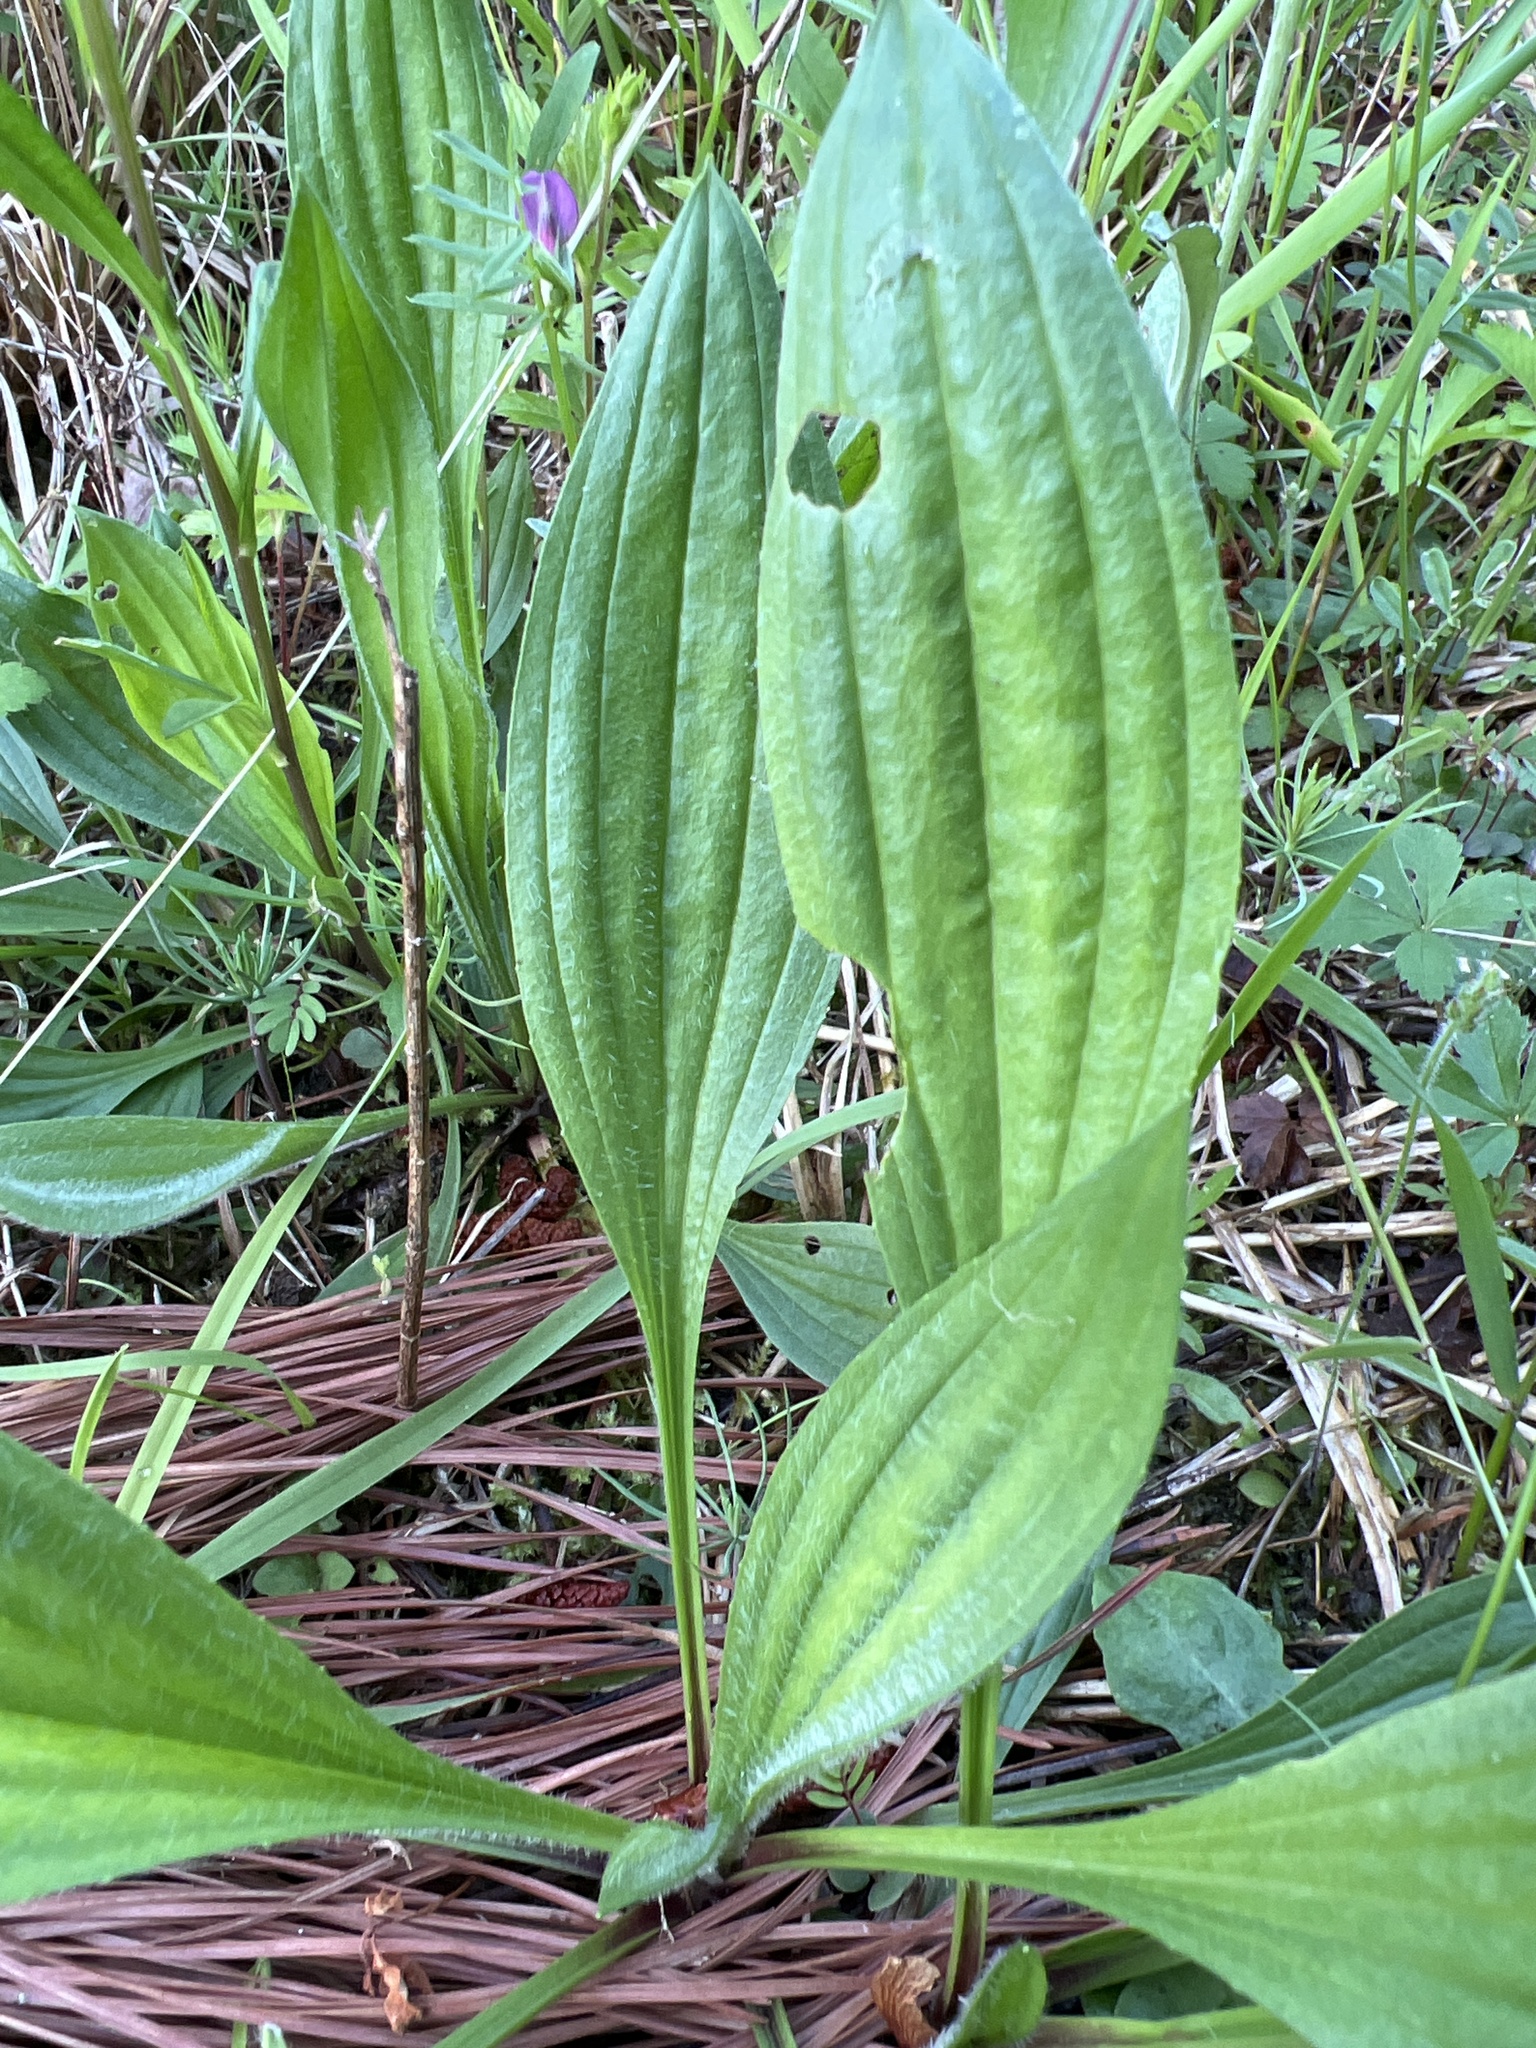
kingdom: Plantae
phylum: Tracheophyta
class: Magnoliopsida
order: Lamiales
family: Plantaginaceae
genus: Plantago
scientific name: Plantago lanceolata
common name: Ribwort plantain
